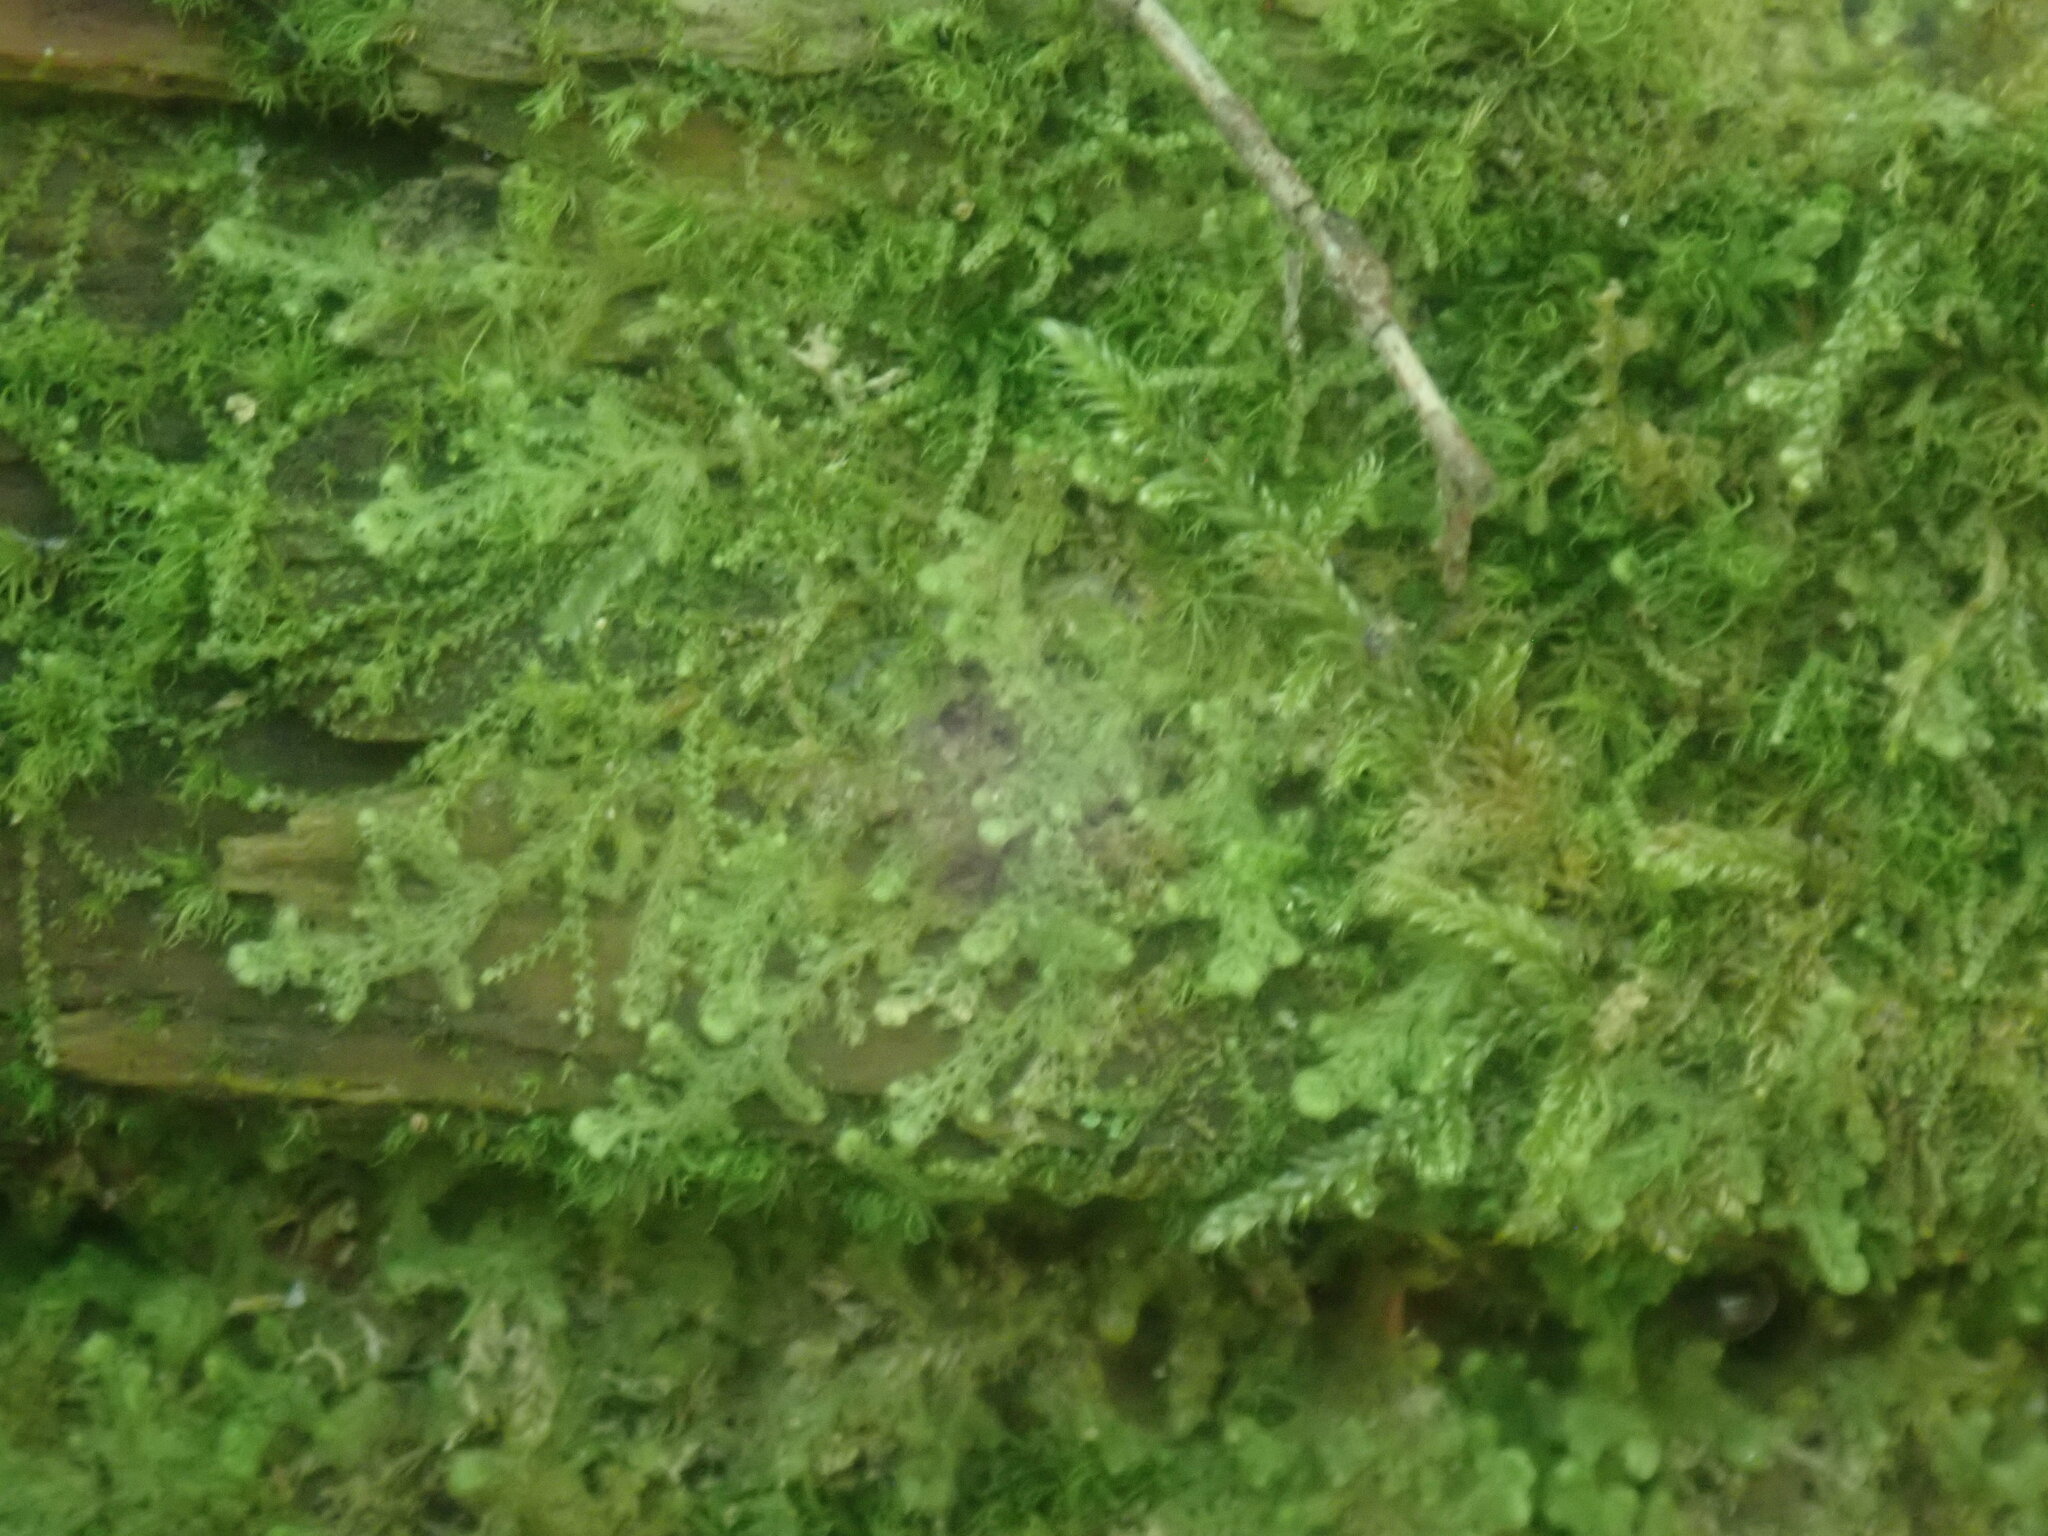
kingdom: Plantae
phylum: Marchantiophyta
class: Jungermanniopsida
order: Ptilidiales
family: Ptilidiaceae
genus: Ptilidium
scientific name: Ptilidium pulcherrimum
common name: Tree fringewort
